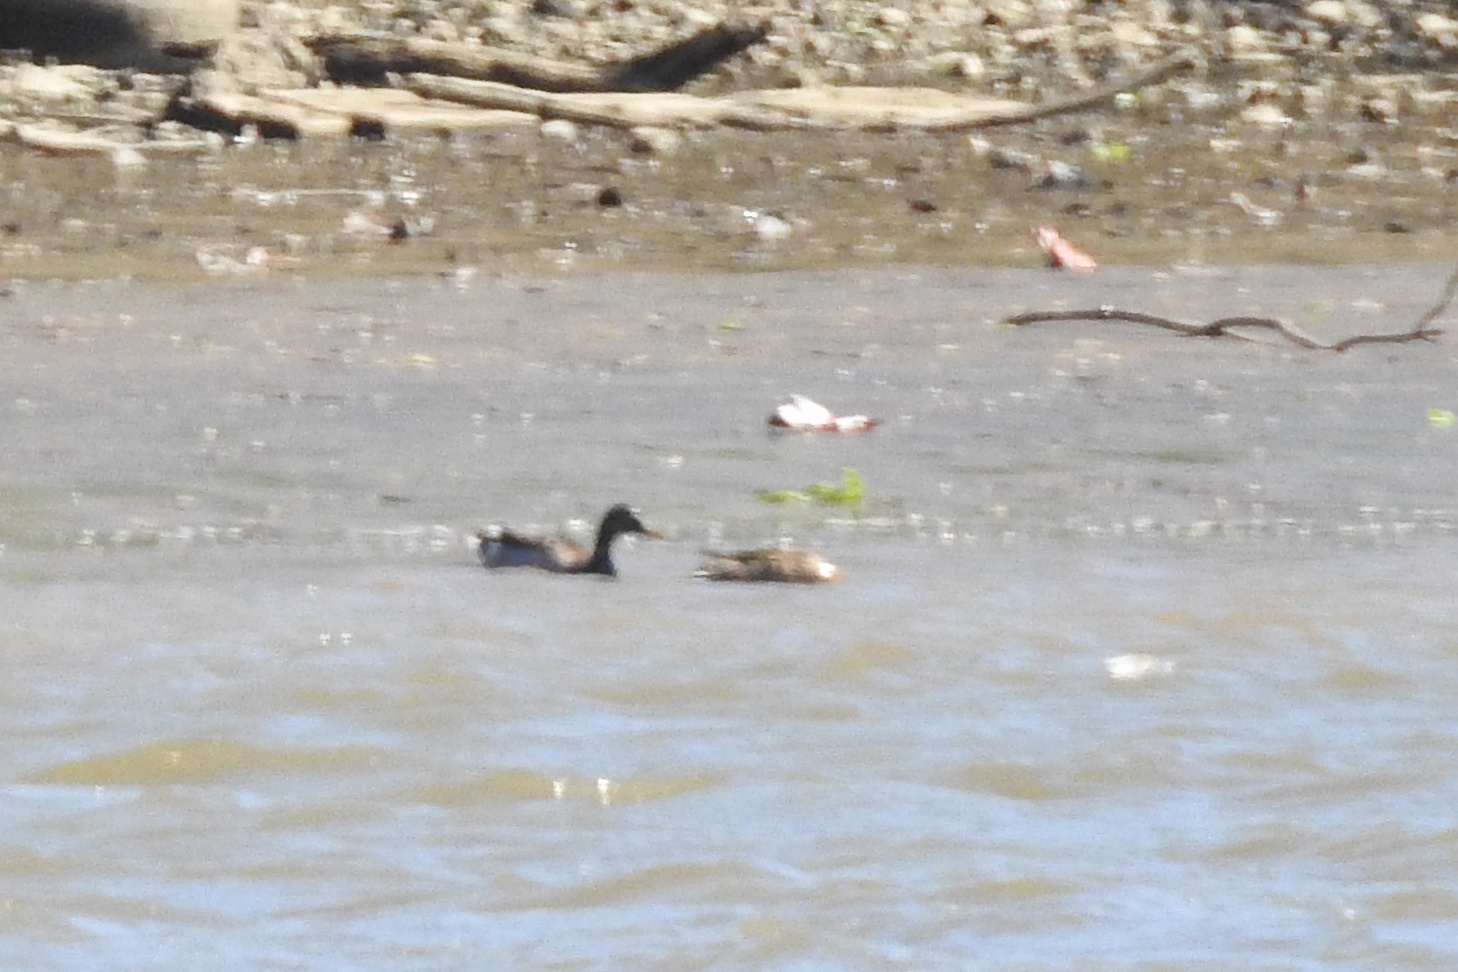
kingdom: Animalia
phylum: Chordata
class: Aves
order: Anseriformes
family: Anatidae
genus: Anas
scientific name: Anas platyrhynchos
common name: Mallard
